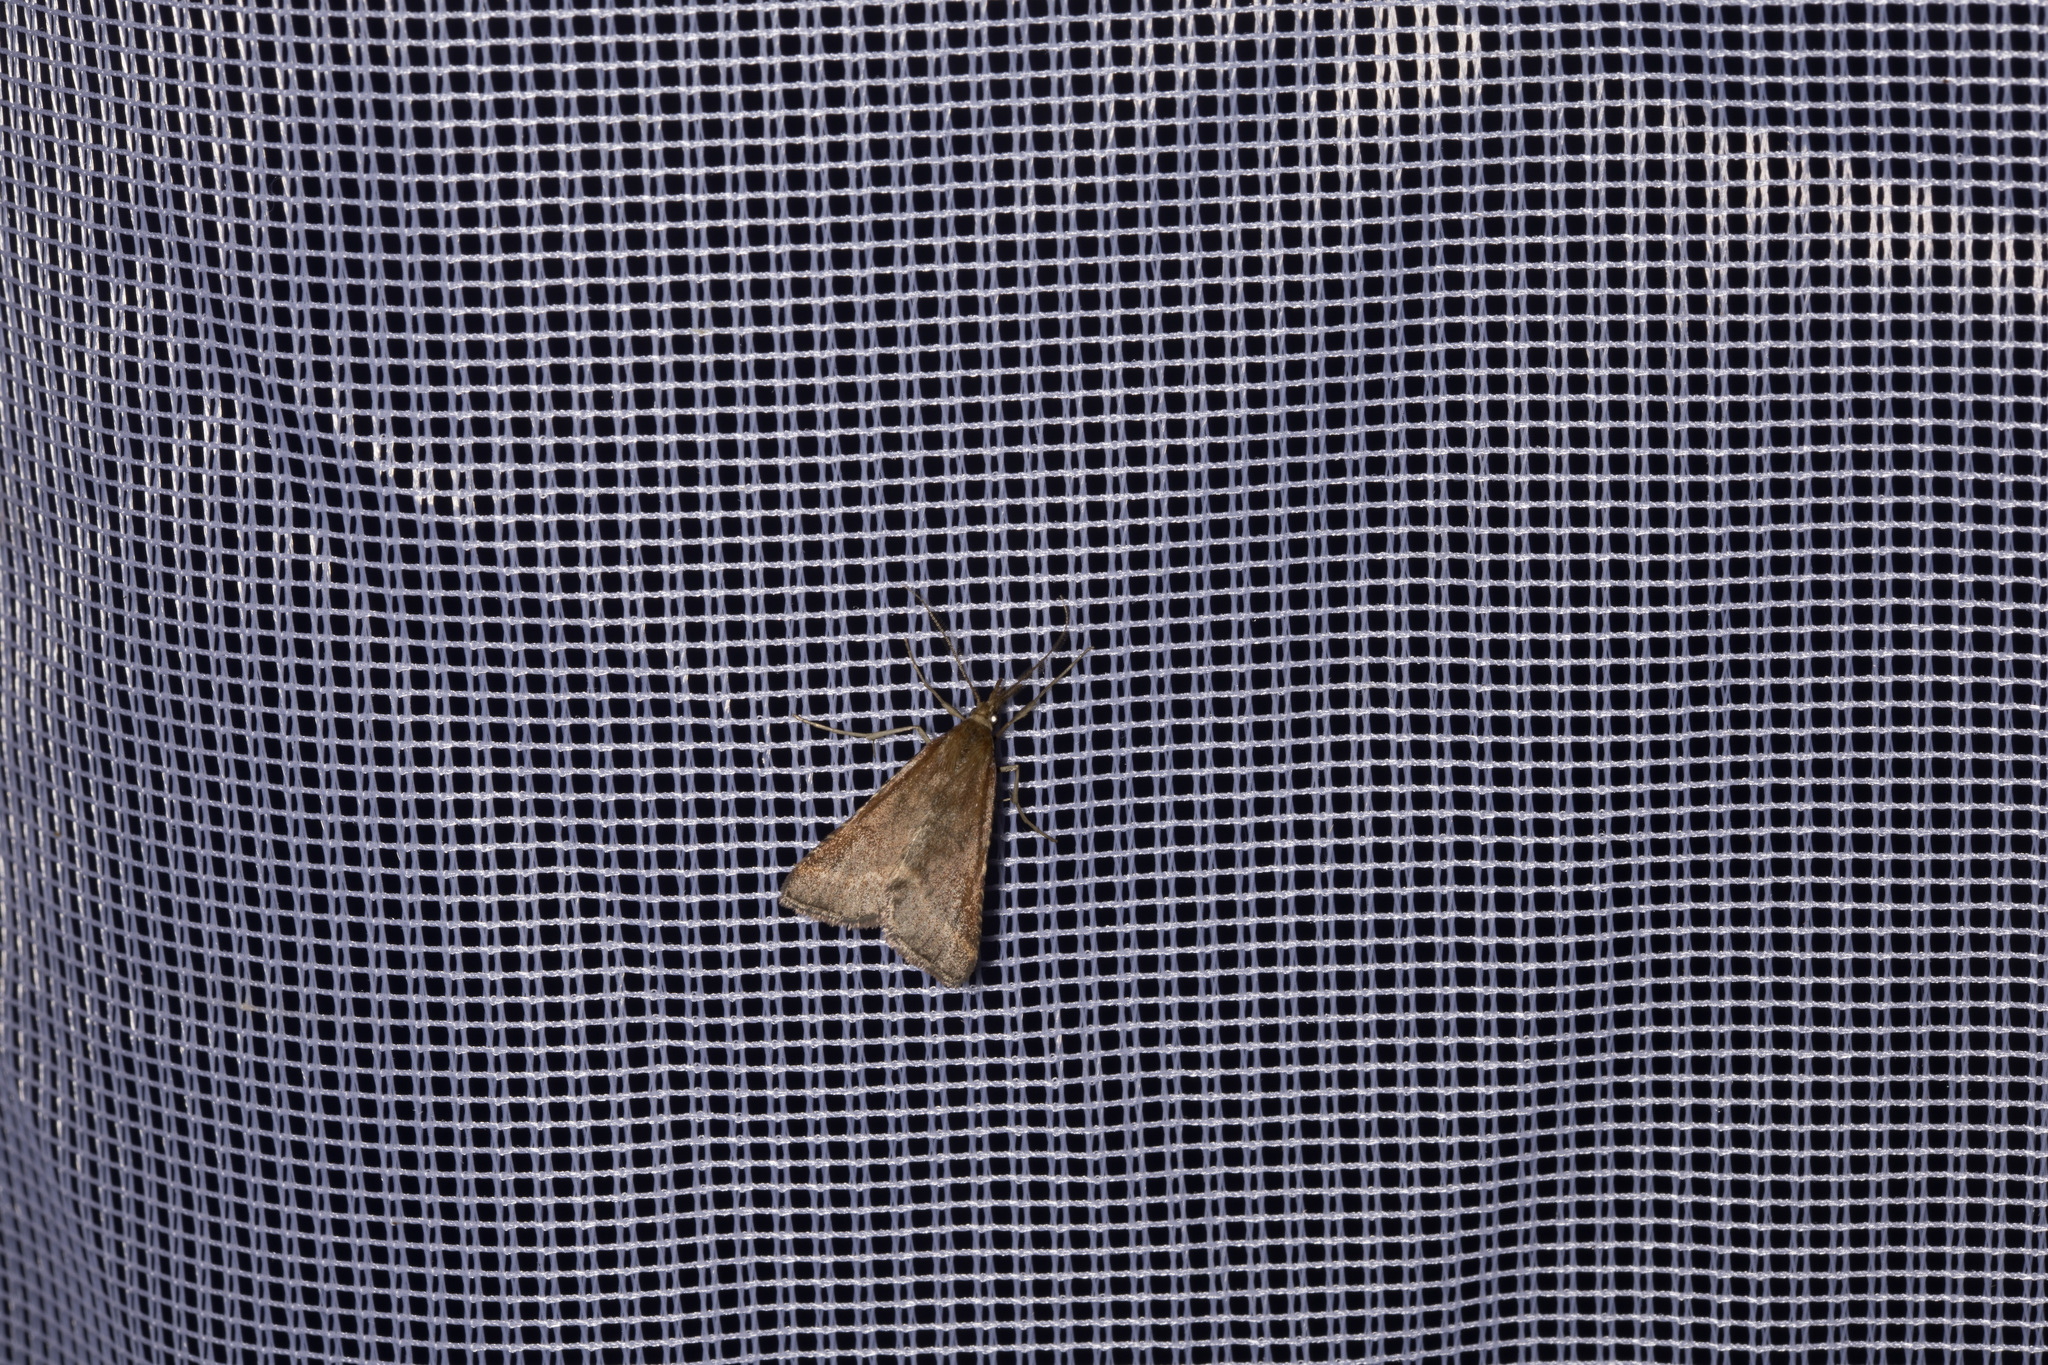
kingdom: Animalia
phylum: Arthropoda
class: Insecta
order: Lepidoptera
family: Pyralidae
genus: Synaphe
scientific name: Synaphe punctalis
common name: Long-legged tabby
